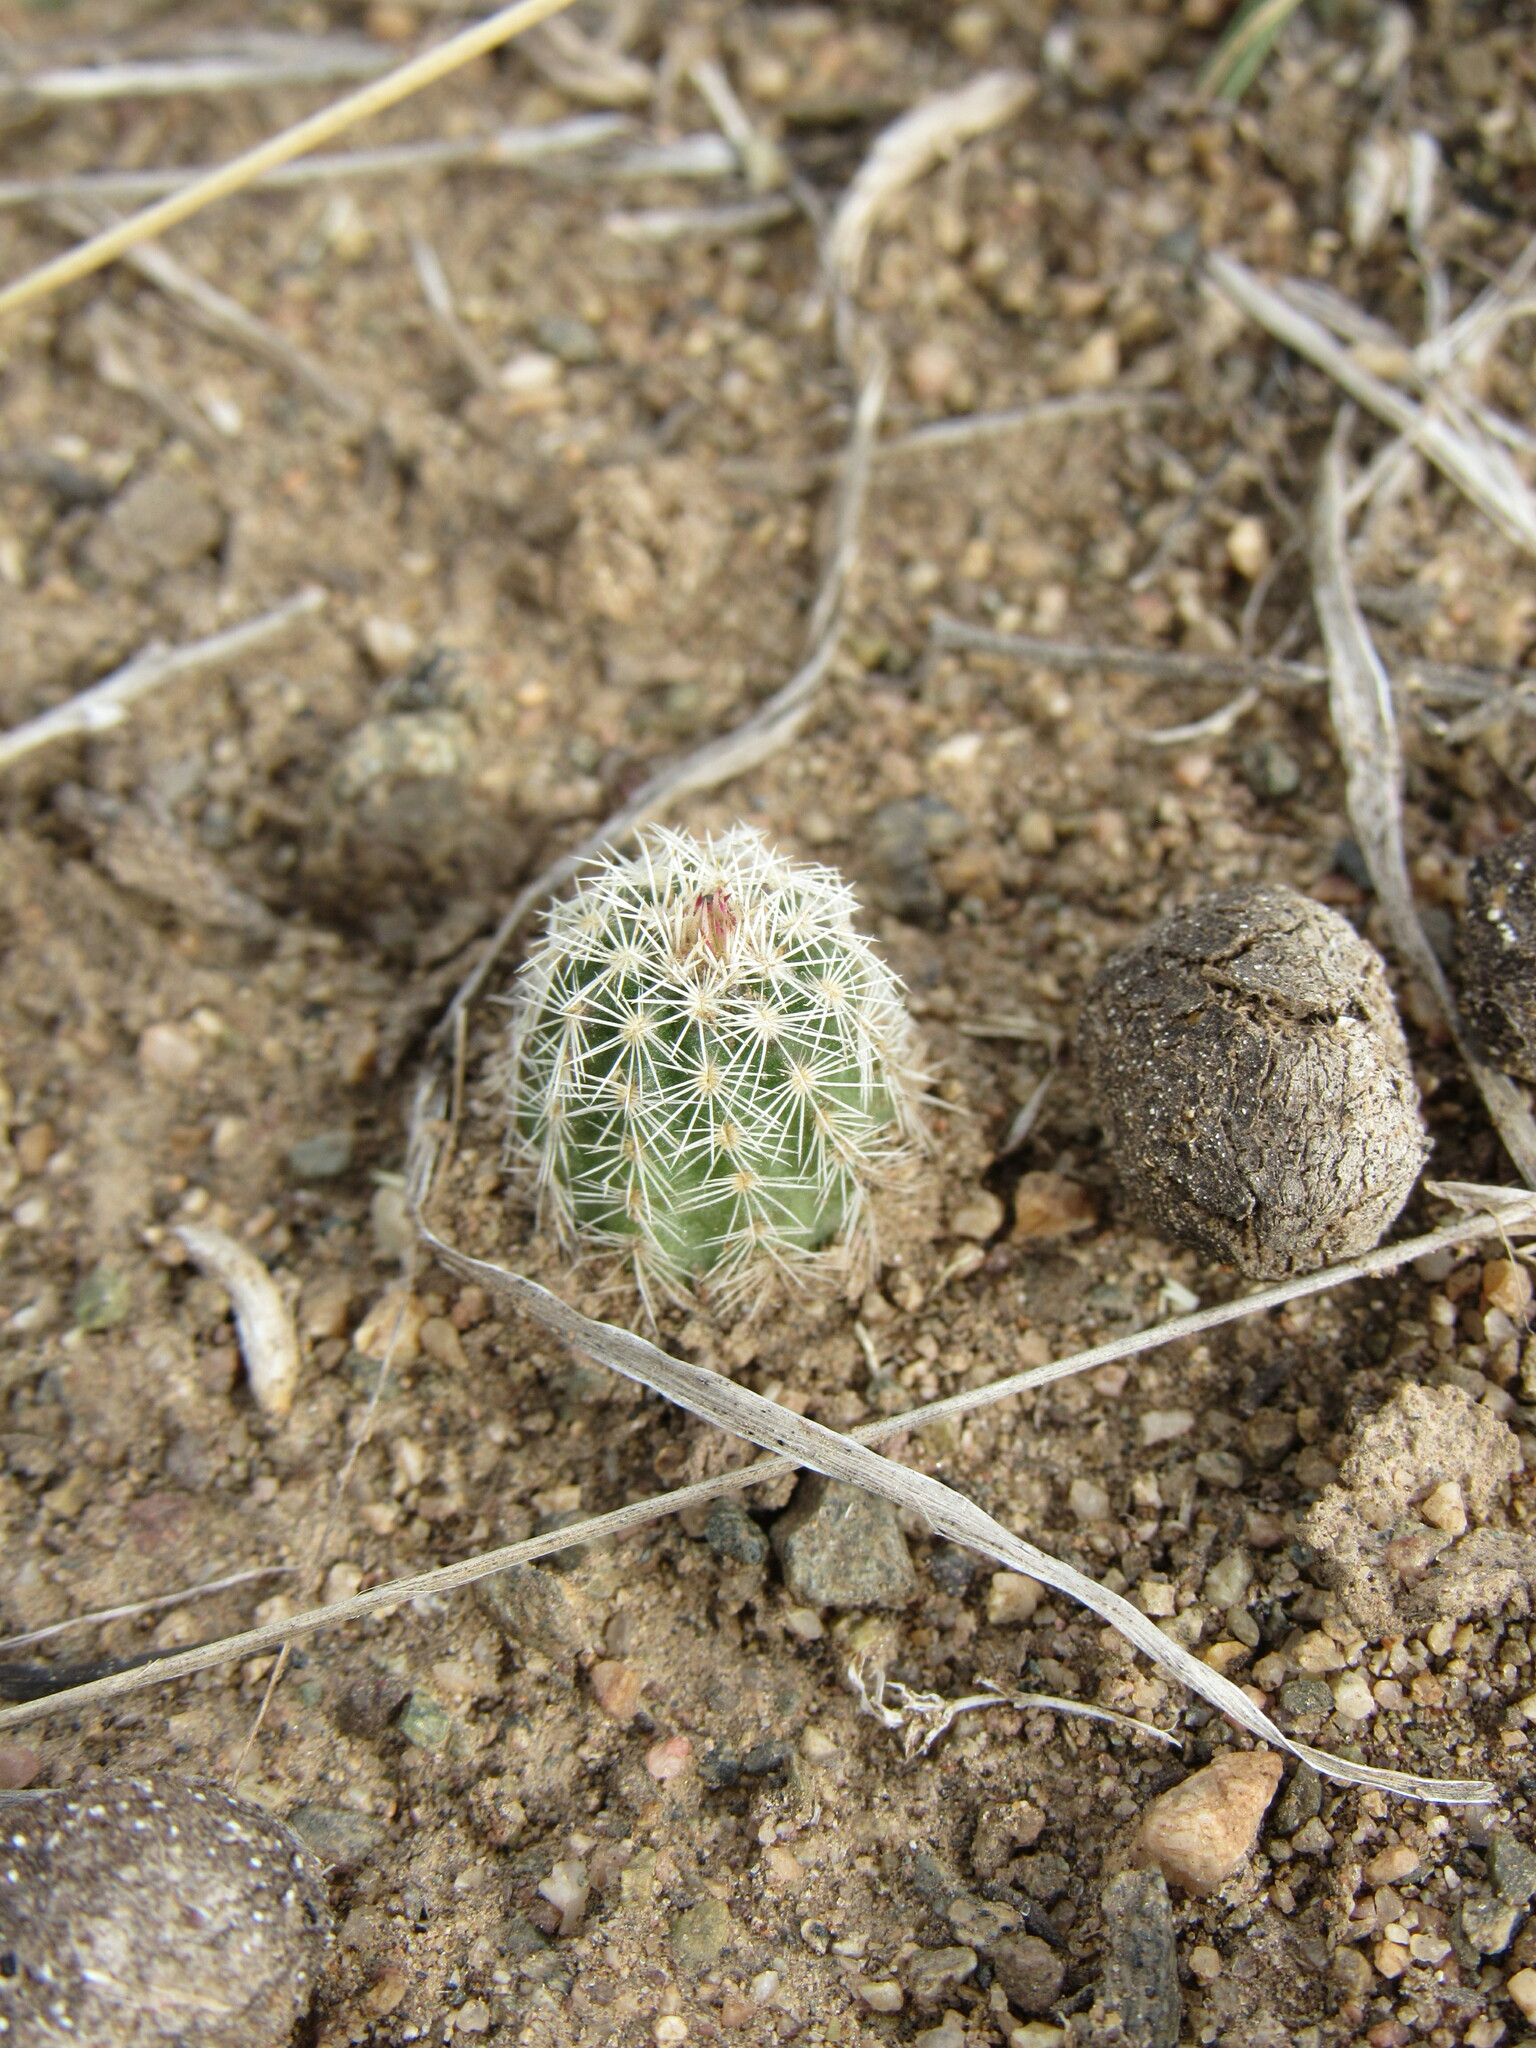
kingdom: Plantae
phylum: Tracheophyta
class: Magnoliopsida
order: Caryophyllales
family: Cactaceae
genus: Echinocereus
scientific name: Echinocereus viridiflorus
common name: Nylon hedgehog cactus
